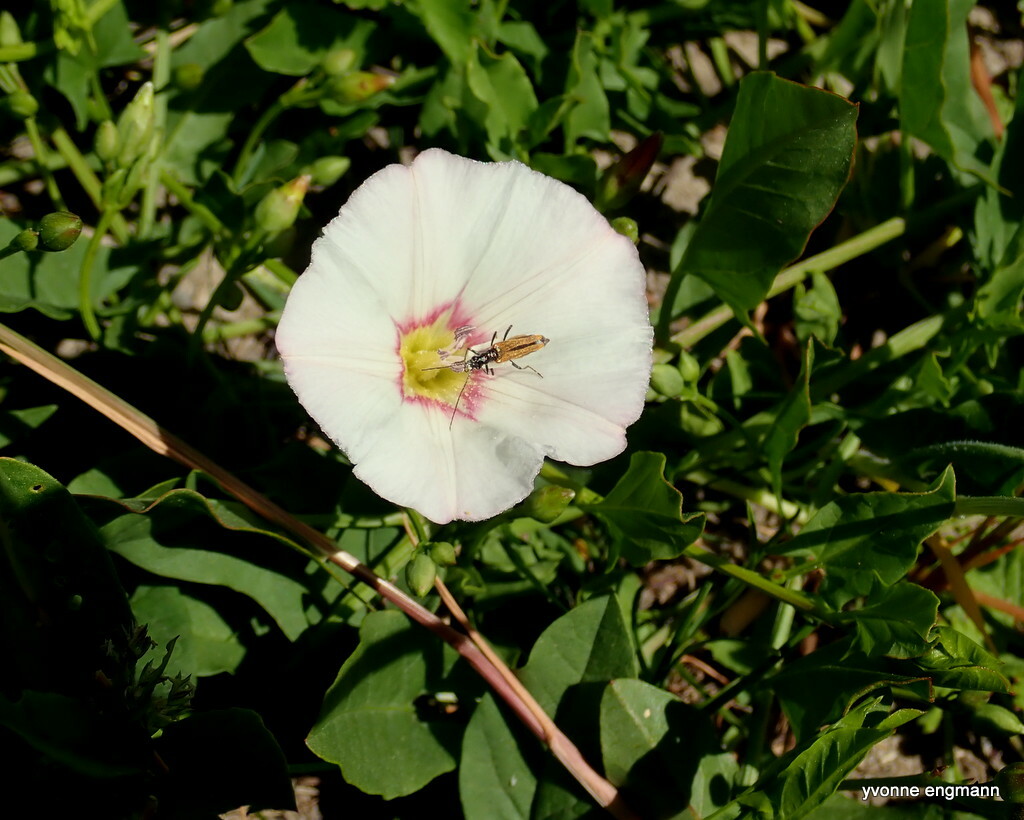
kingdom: Plantae
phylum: Tracheophyta
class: Magnoliopsida
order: Solanales
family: Convolvulaceae
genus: Convolvulus
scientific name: Convolvulus arvensis
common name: Field bindweed
